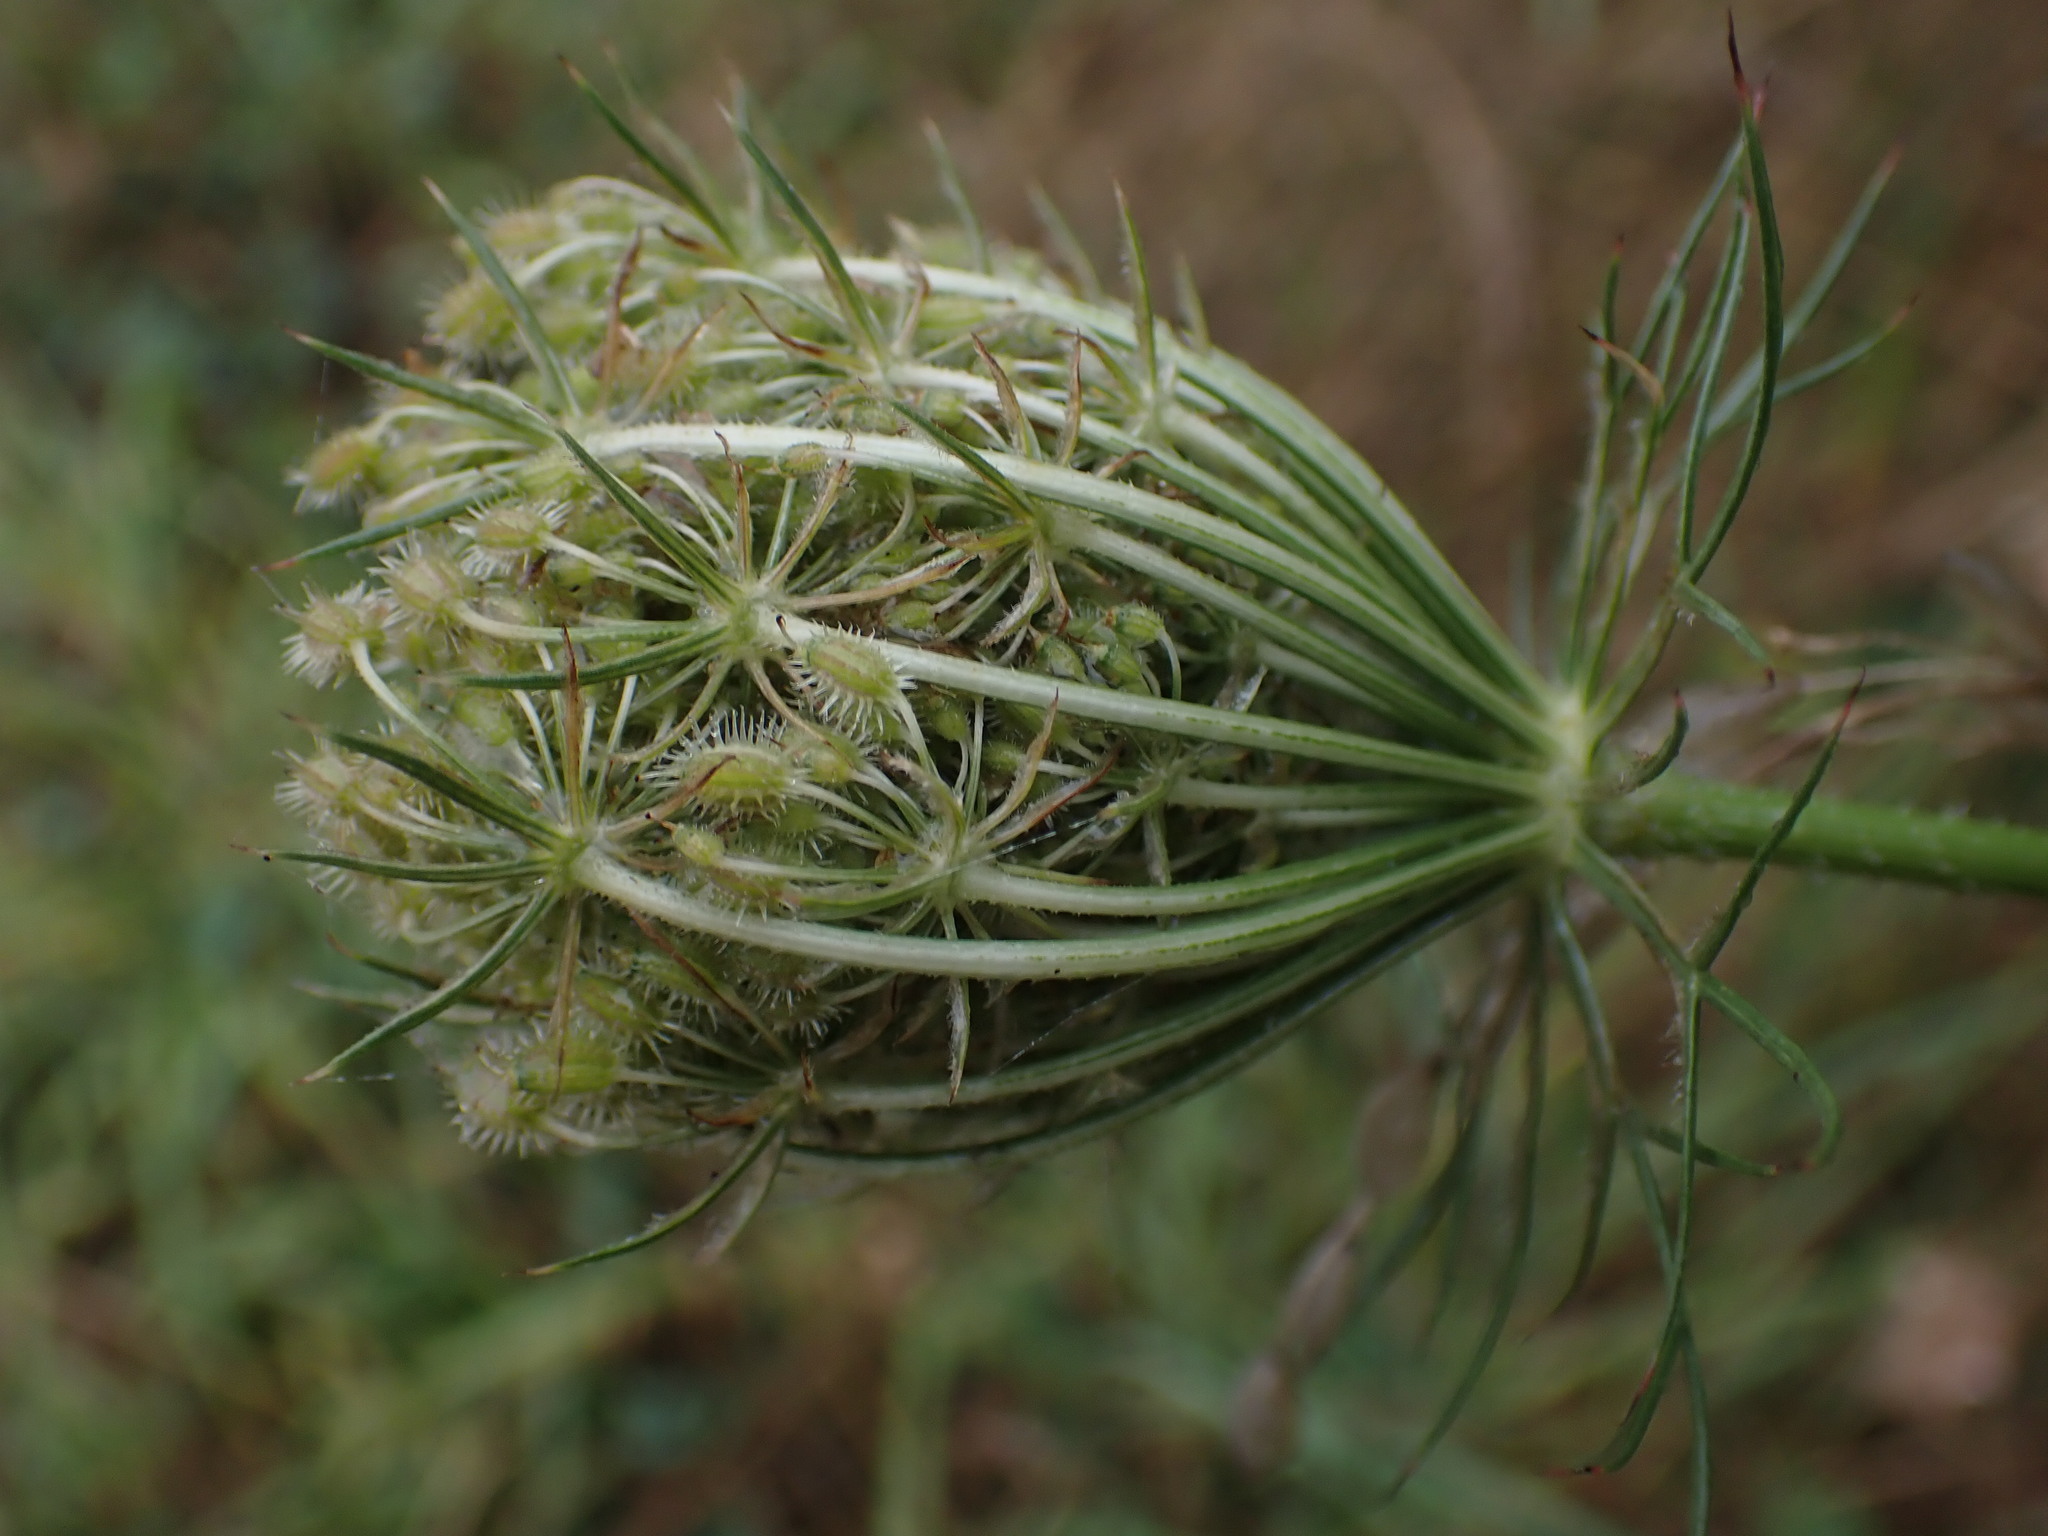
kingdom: Plantae
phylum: Tracheophyta
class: Magnoliopsida
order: Apiales
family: Apiaceae
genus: Daucus
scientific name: Daucus carota
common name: Wild carrot
